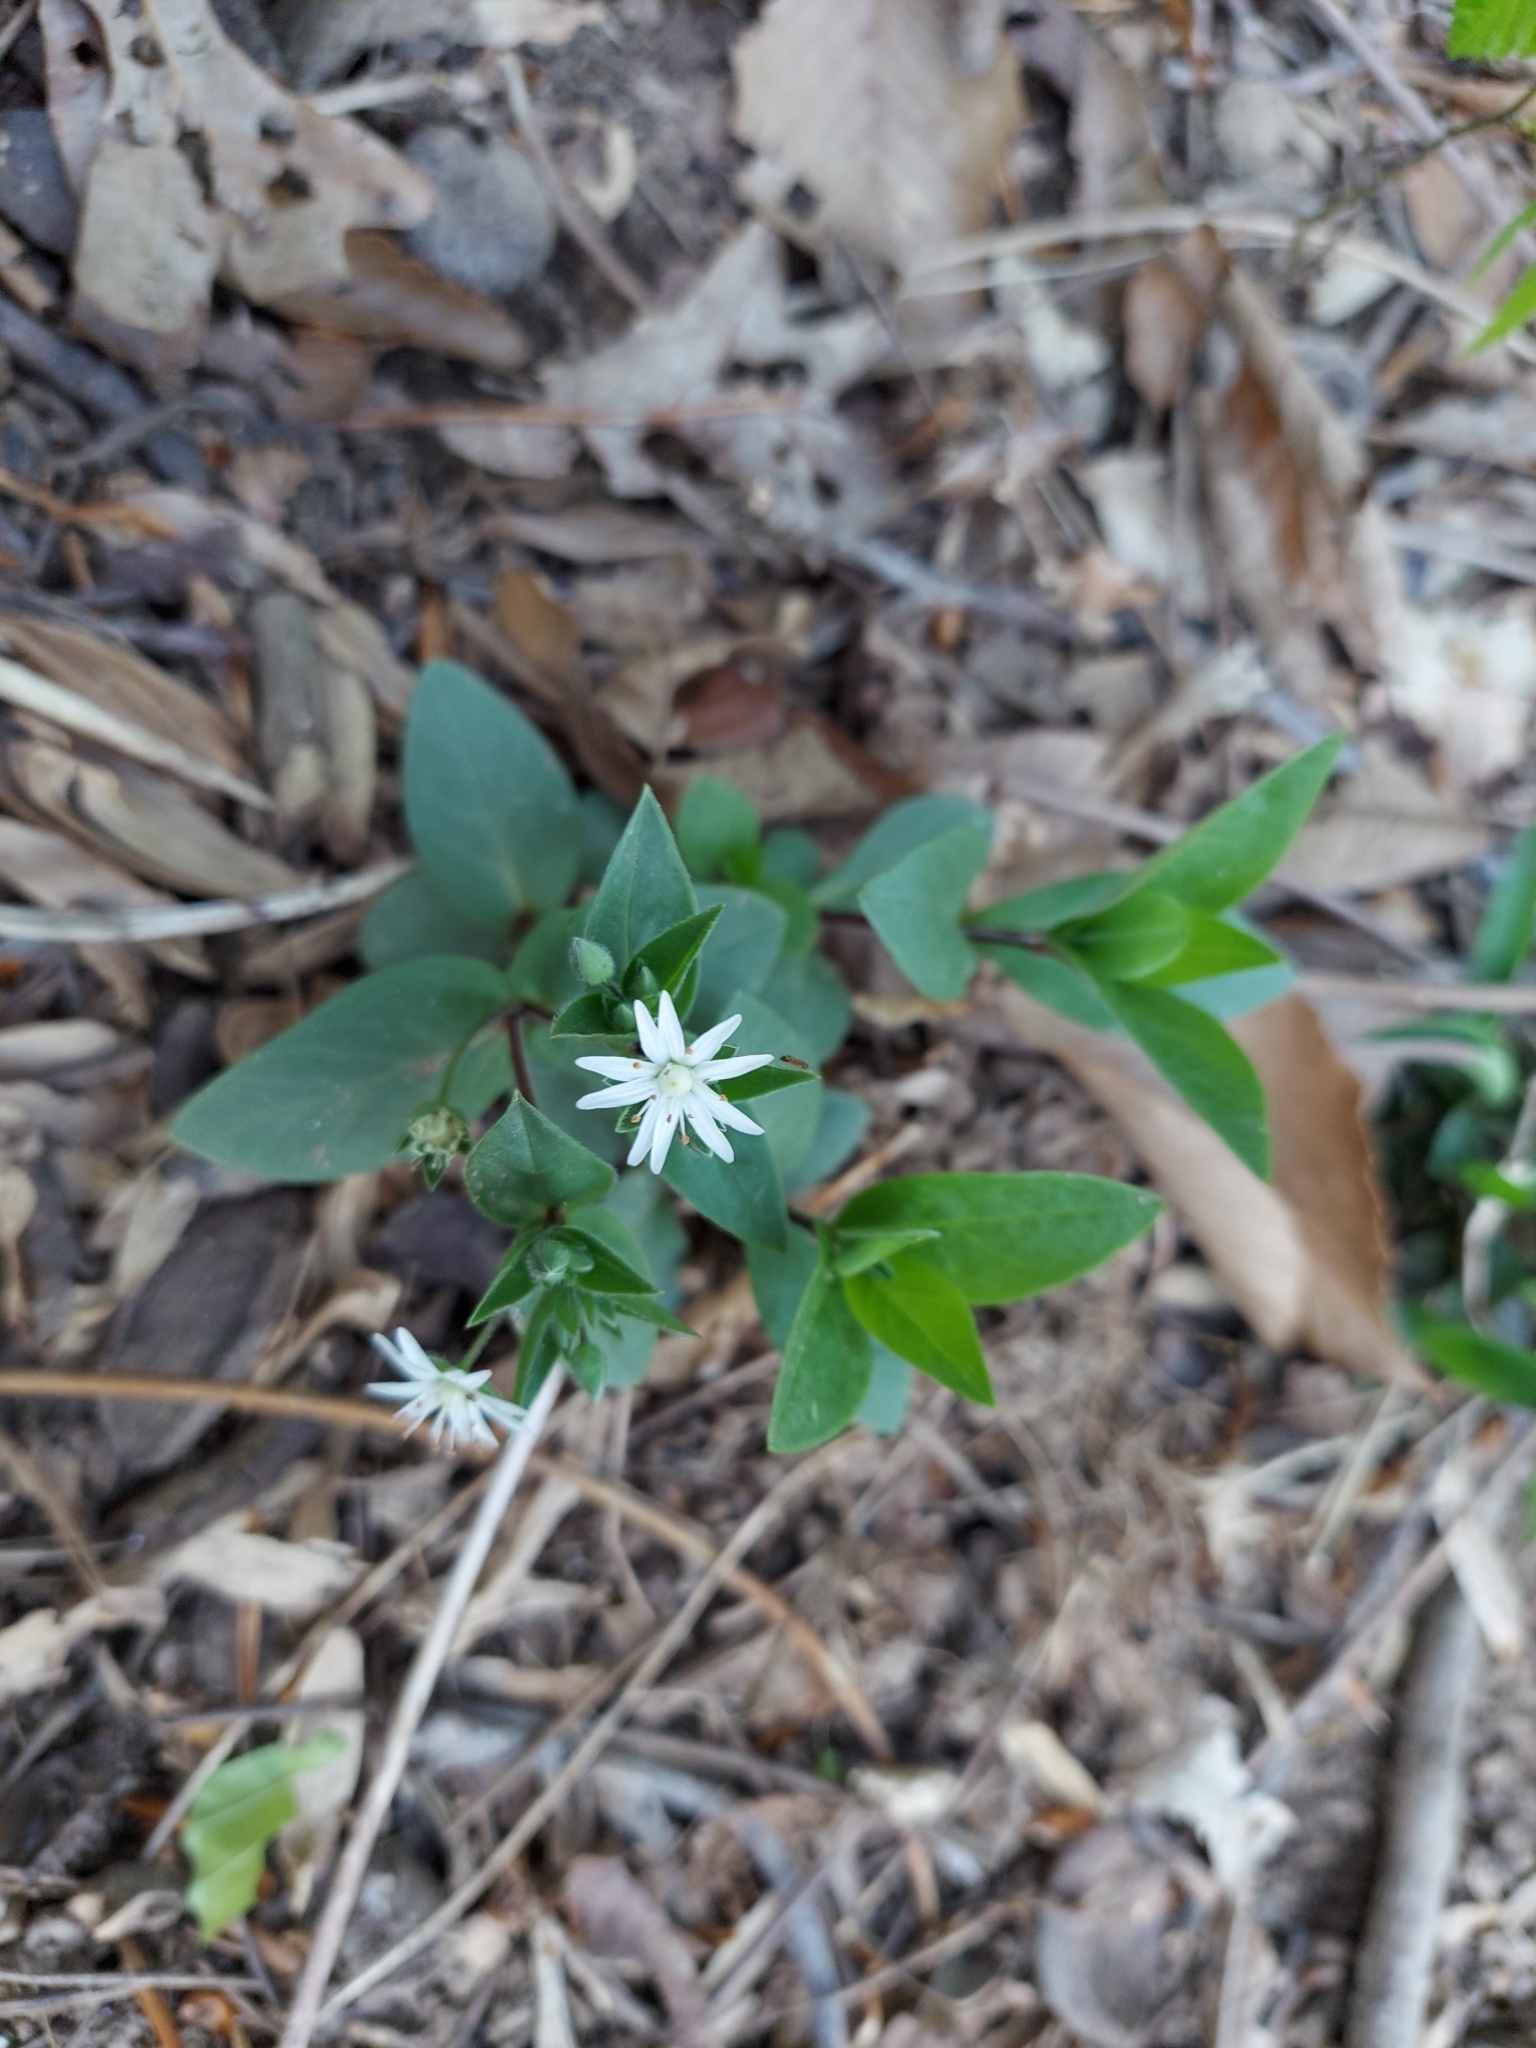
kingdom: Plantae
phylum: Tracheophyta
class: Magnoliopsida
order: Caryophyllales
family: Caryophyllaceae
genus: Stellaria
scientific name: Stellaria pubera
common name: Star chickweed
